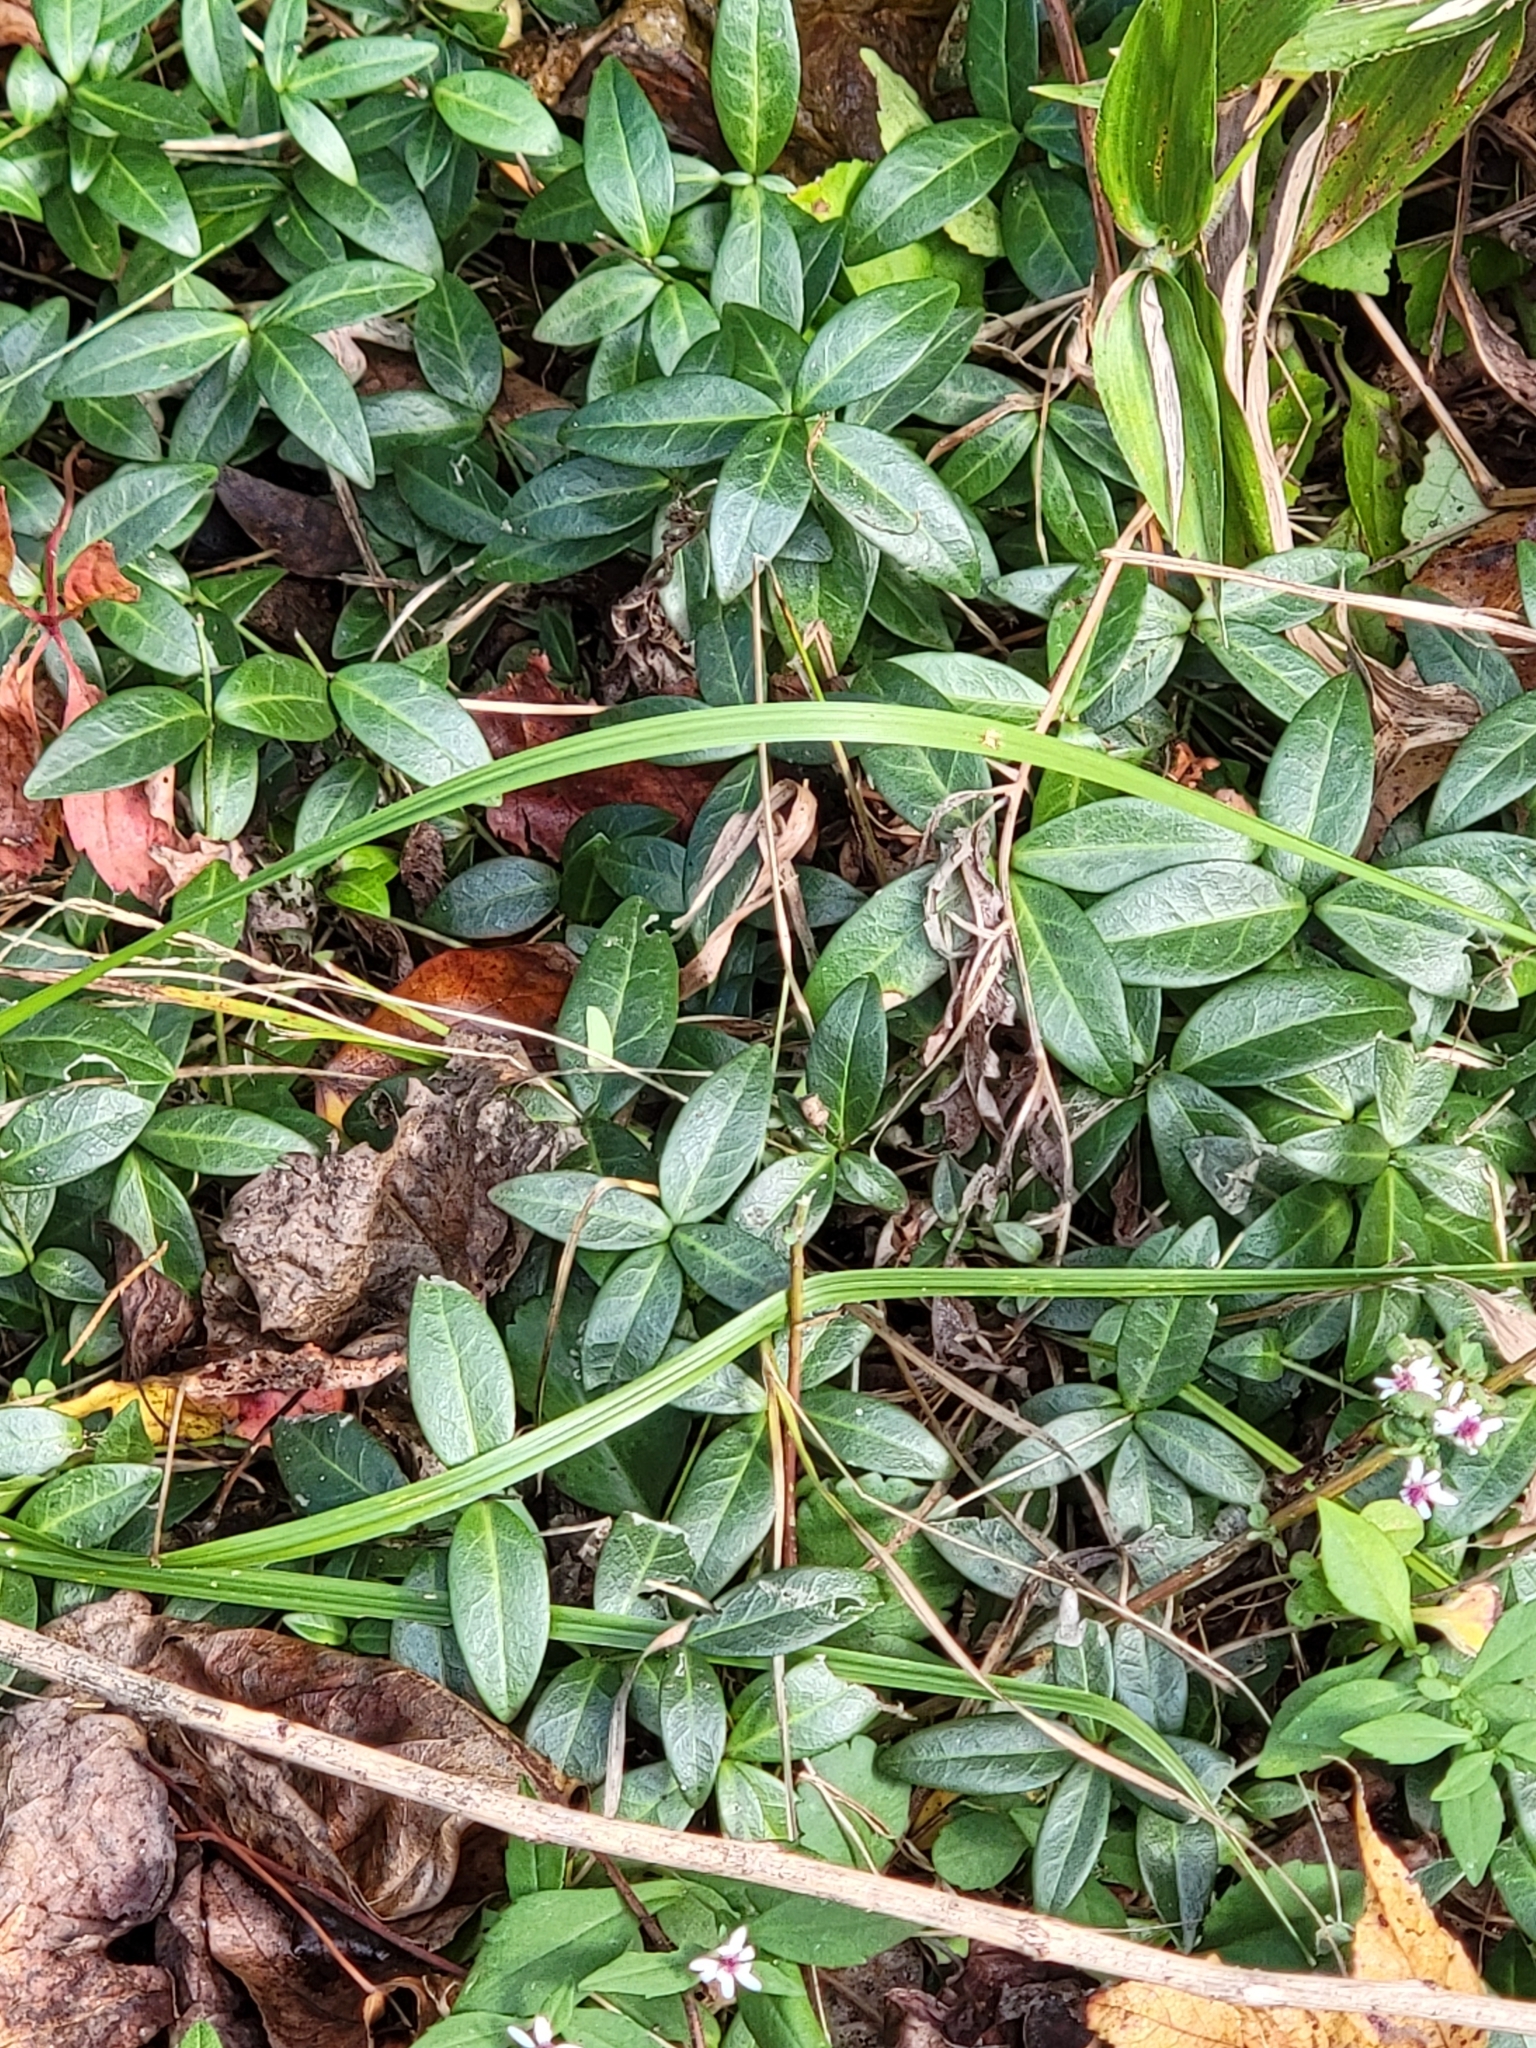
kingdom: Plantae
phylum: Tracheophyta
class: Magnoliopsida
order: Gentianales
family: Apocynaceae
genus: Vinca
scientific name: Vinca minor
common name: Lesser periwinkle
